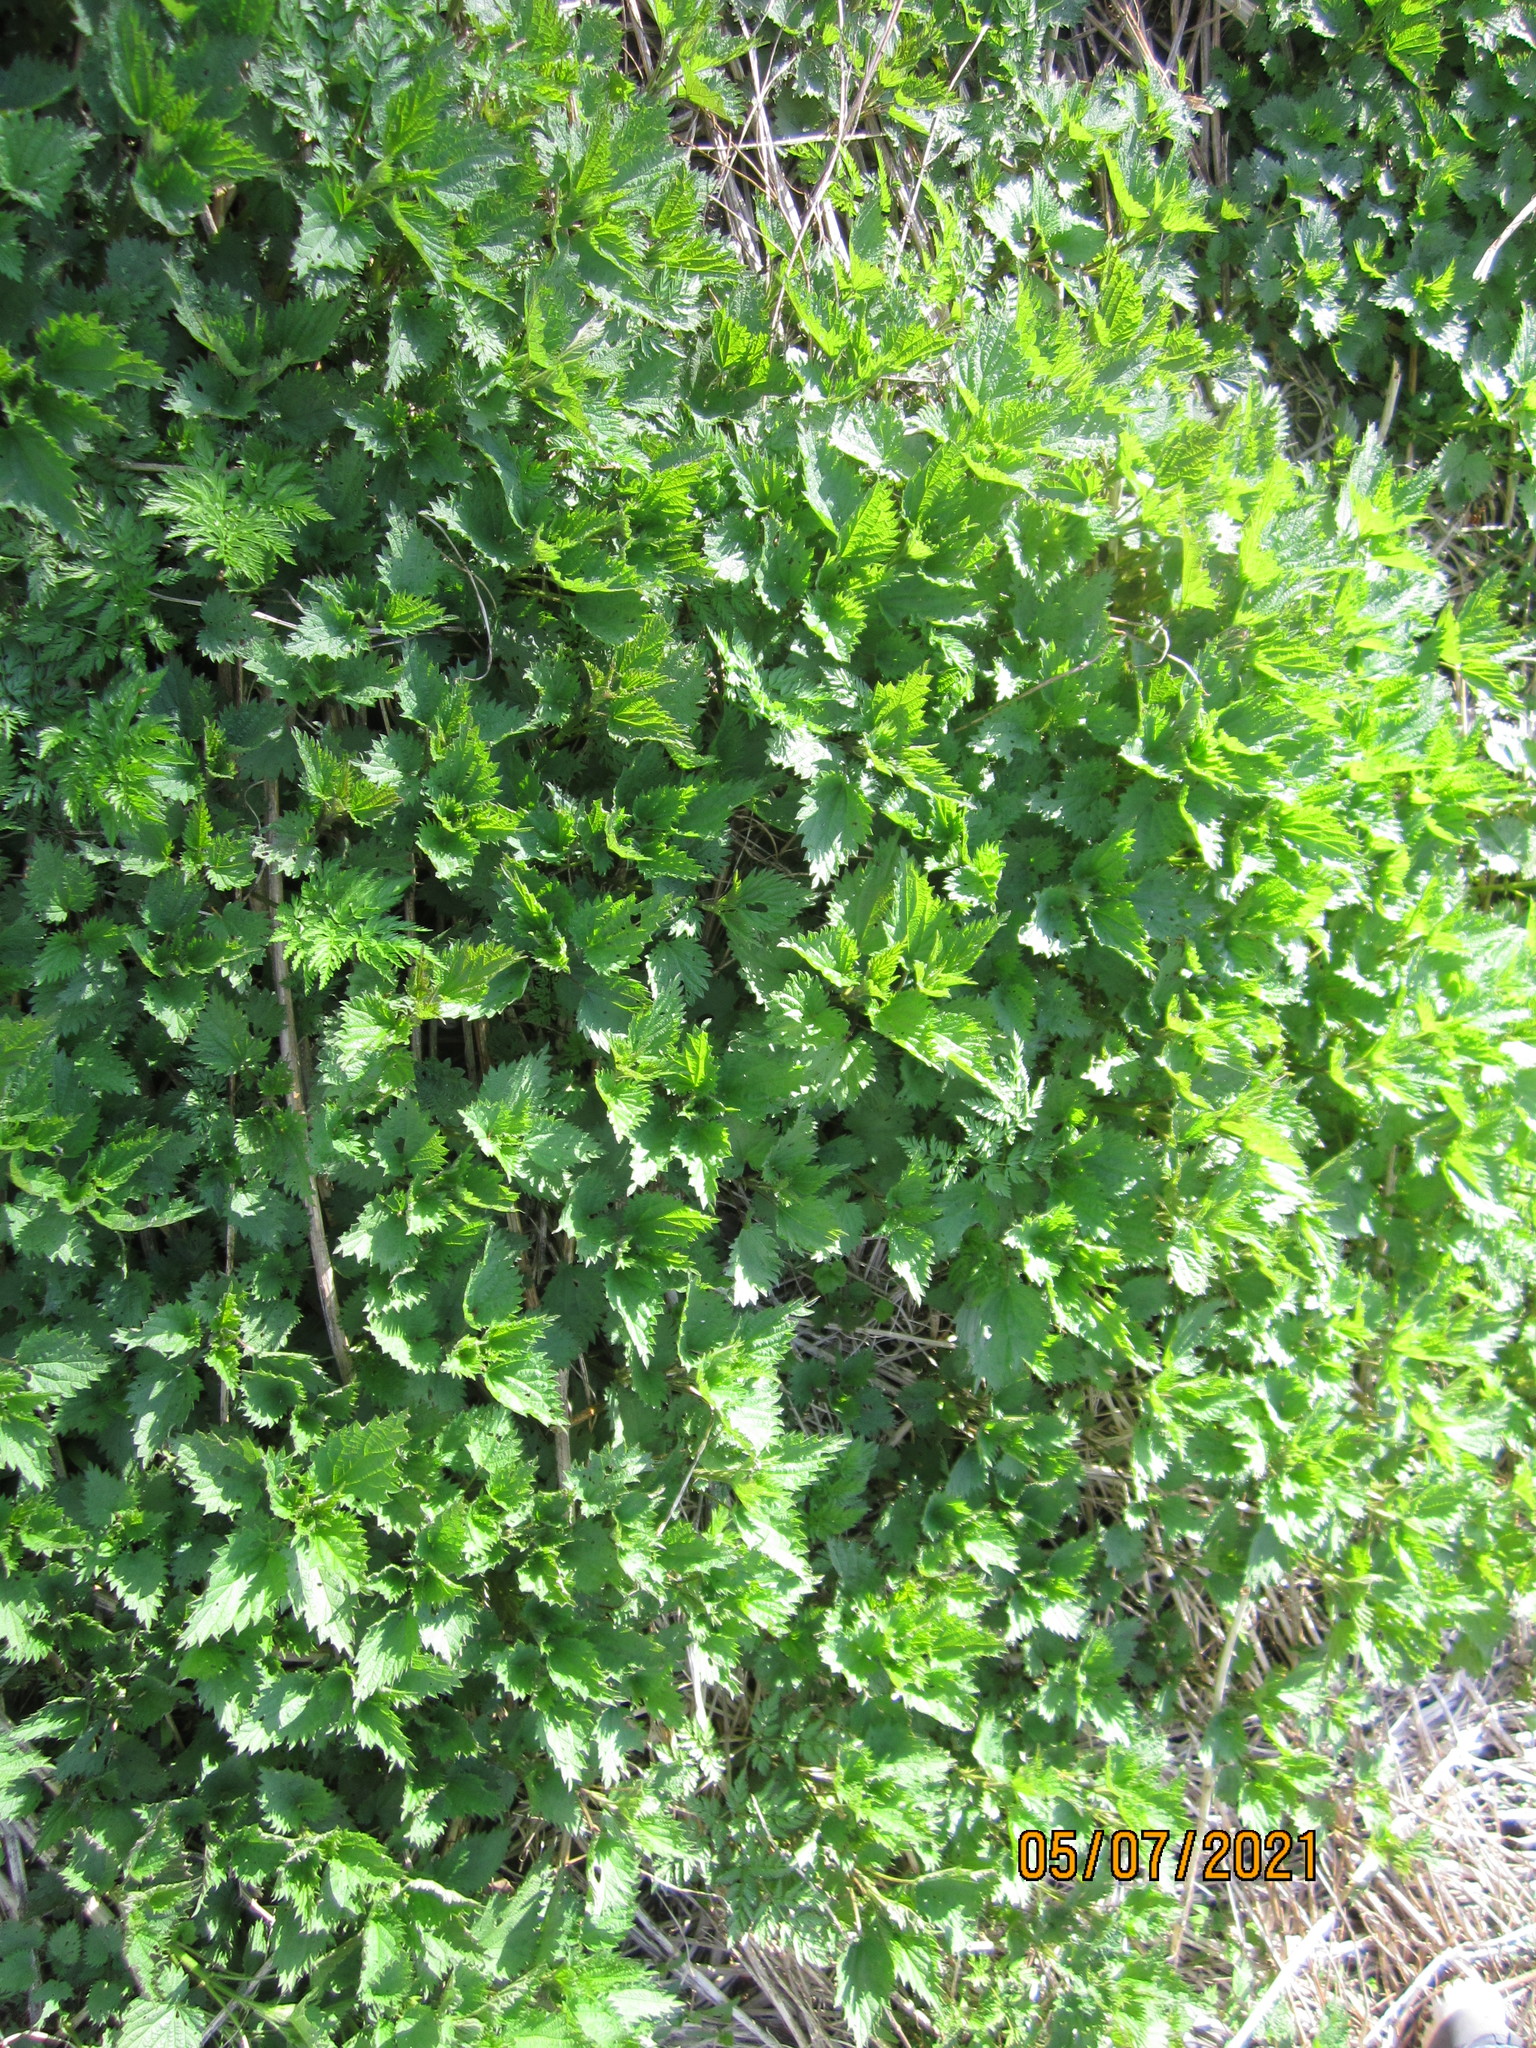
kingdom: Plantae
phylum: Tracheophyta
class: Magnoliopsida
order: Rosales
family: Urticaceae
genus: Urtica
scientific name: Urtica dioica
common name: Common nettle
